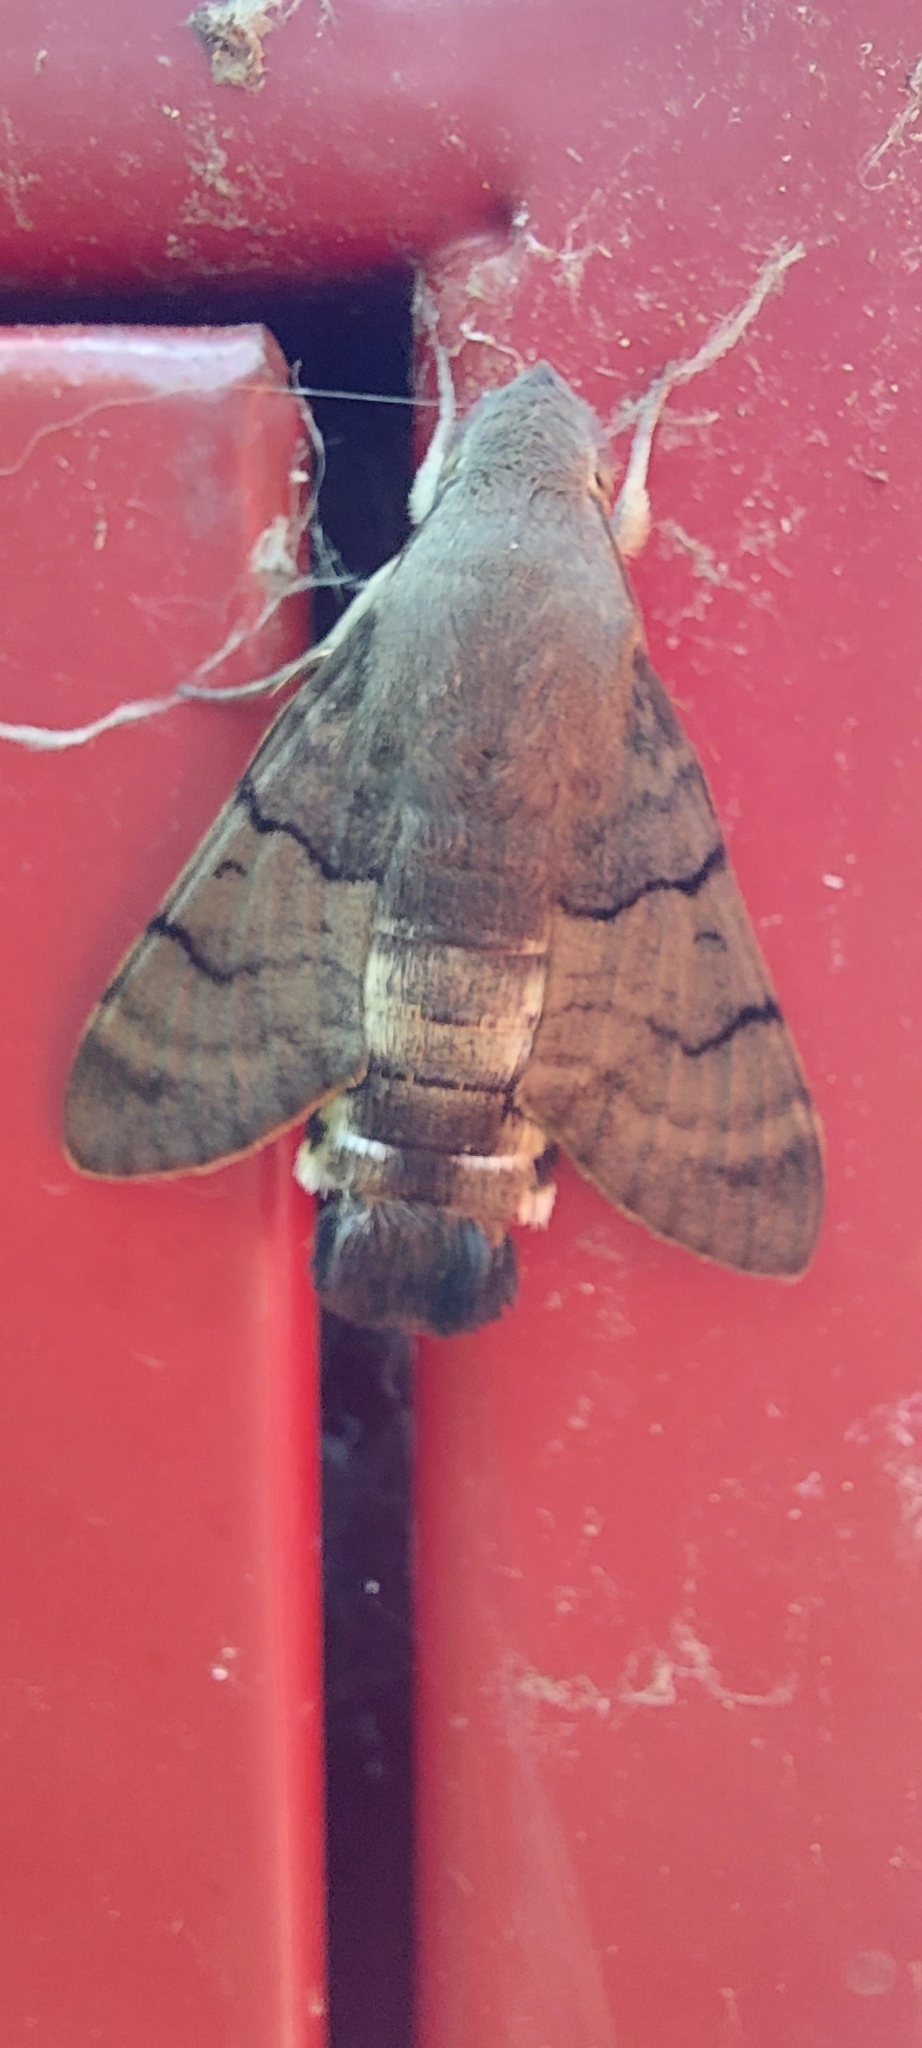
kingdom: Animalia
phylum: Arthropoda
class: Insecta
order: Lepidoptera
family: Sphingidae
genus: Macroglossum
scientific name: Macroglossum stellatarum
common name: Humming-bird hawk-moth
